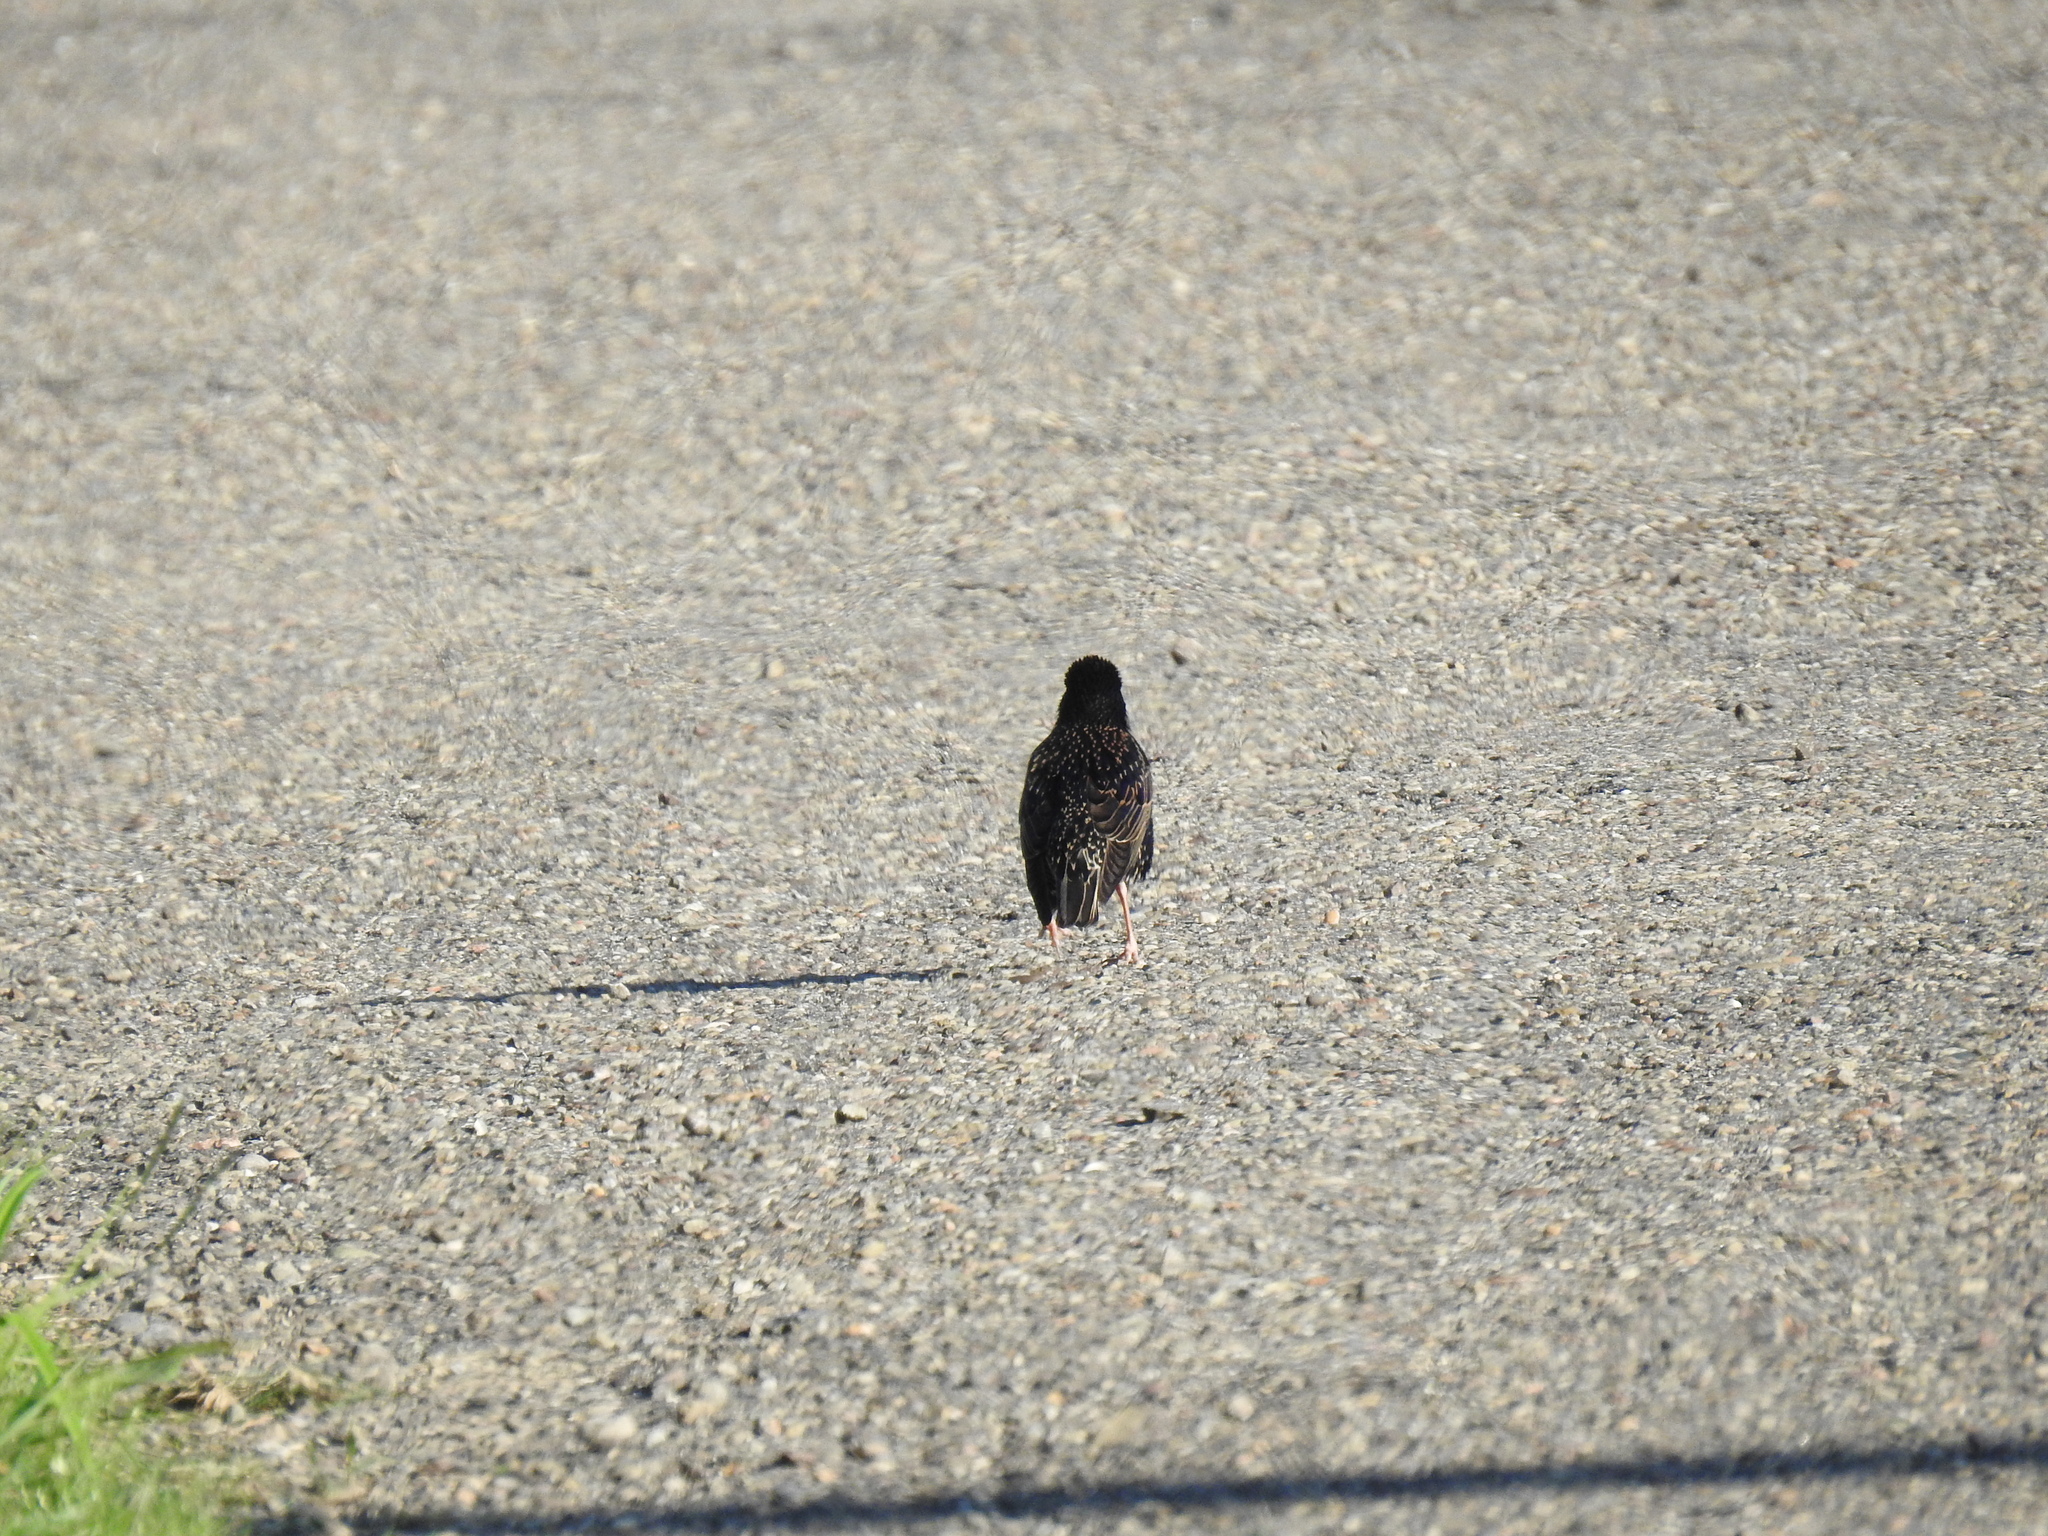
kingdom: Animalia
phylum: Chordata
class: Aves
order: Passeriformes
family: Sturnidae
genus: Sturnus
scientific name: Sturnus vulgaris
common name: Common starling
